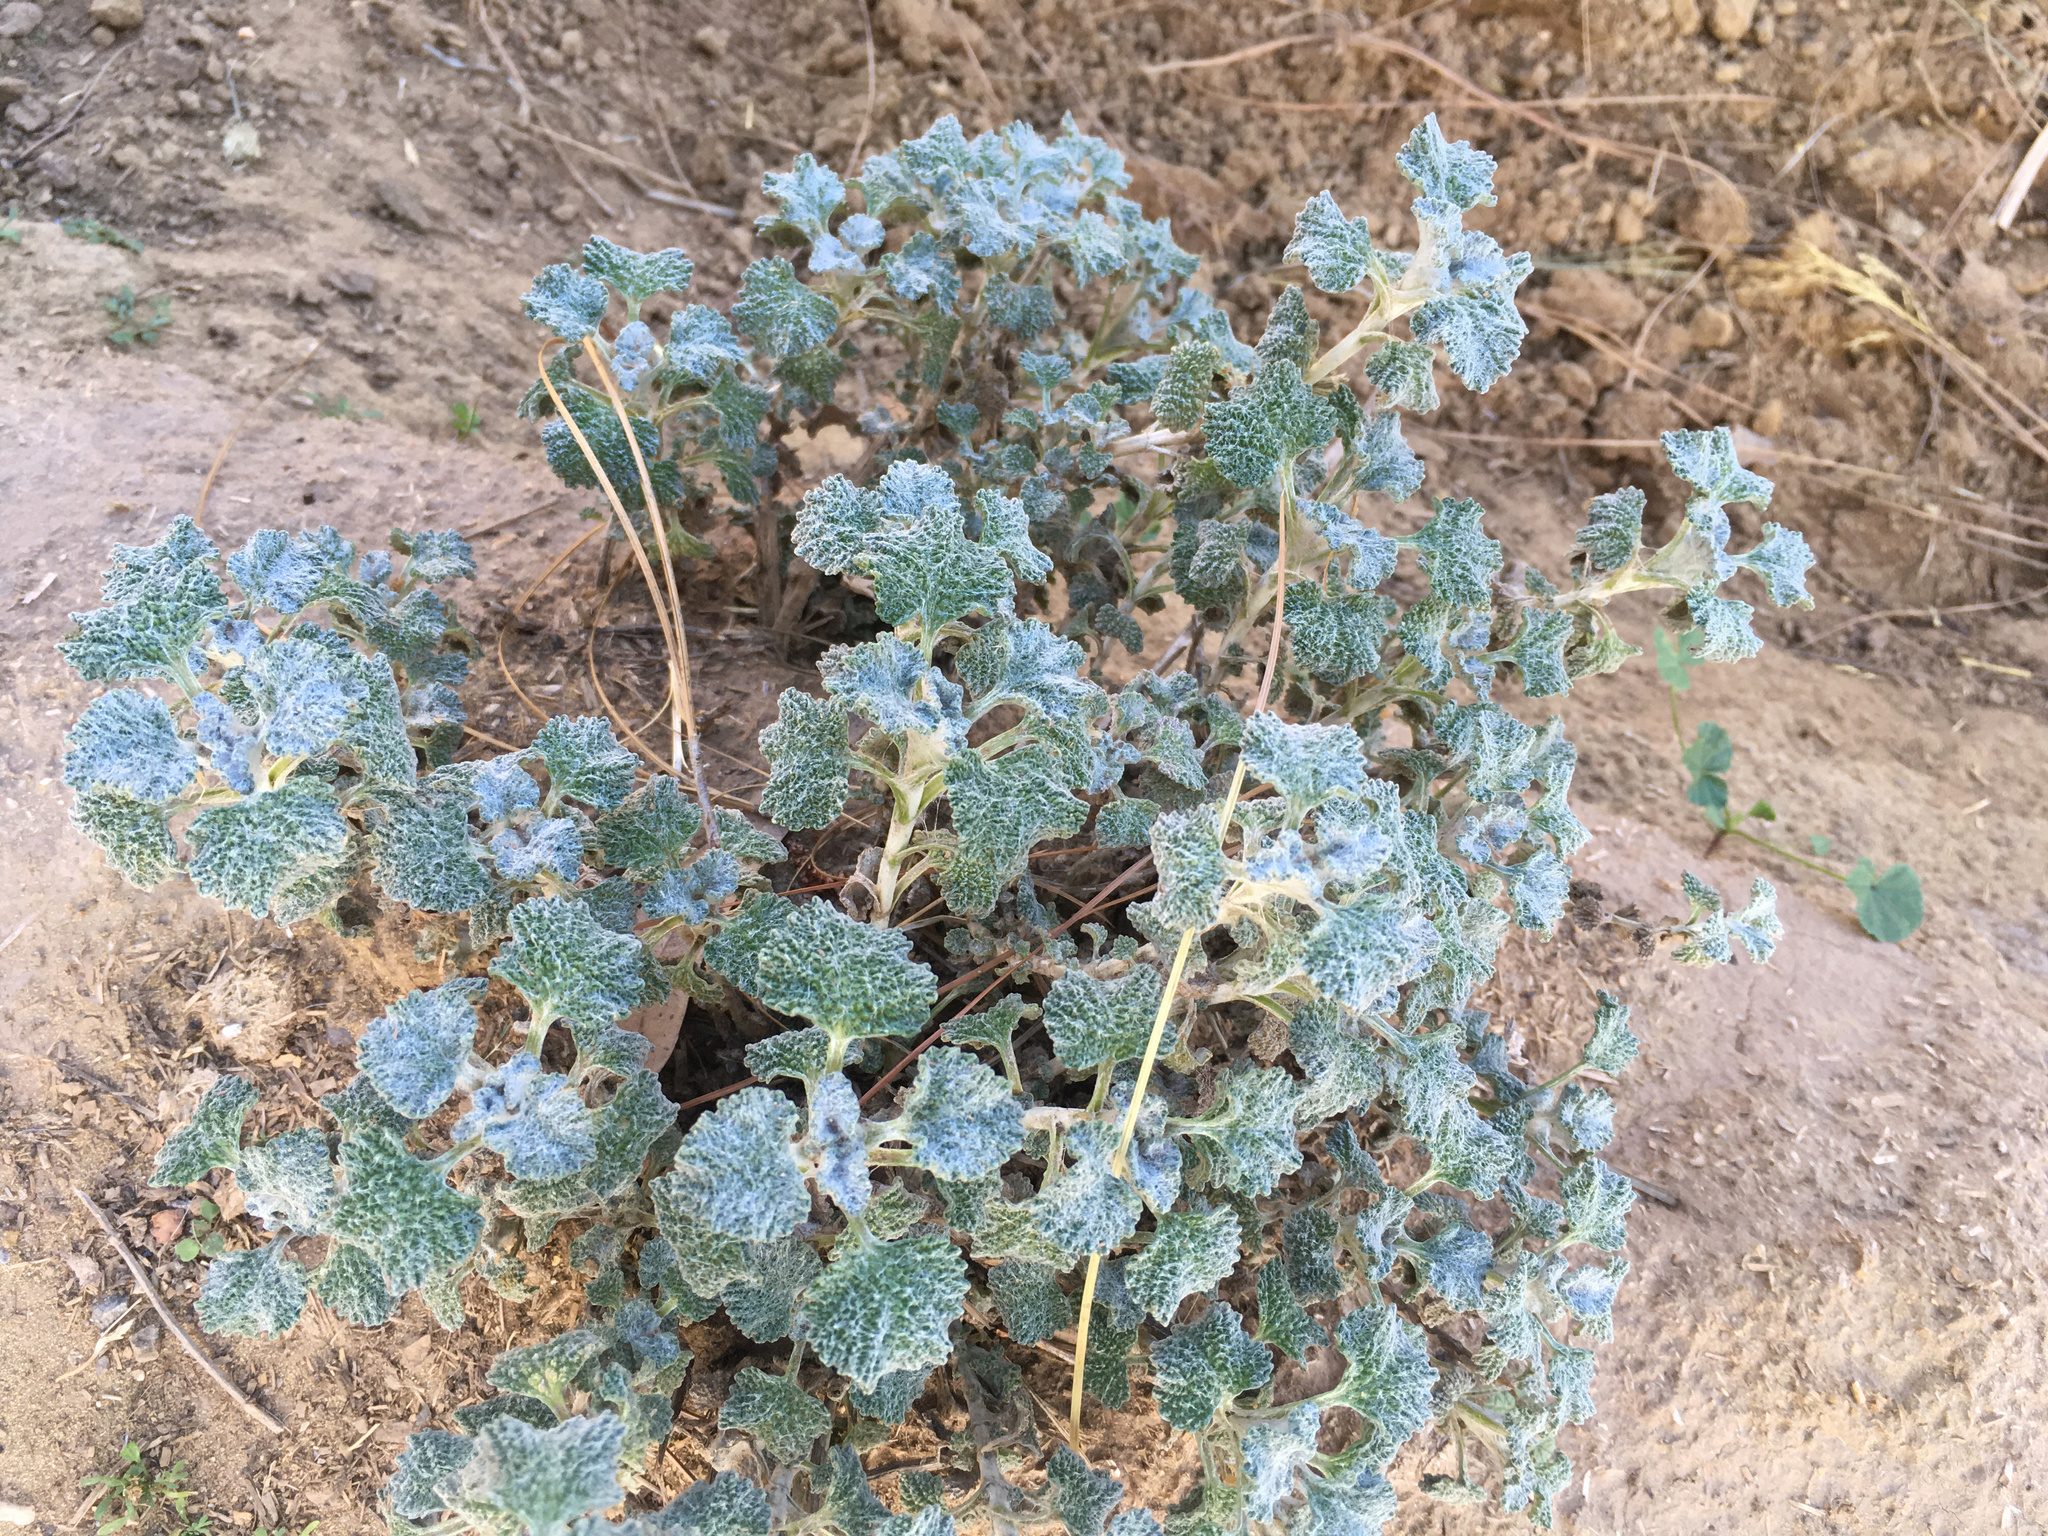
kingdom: Plantae
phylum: Tracheophyta
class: Magnoliopsida
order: Lamiales
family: Lamiaceae
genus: Marrubium
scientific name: Marrubium vulgare
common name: Horehound
